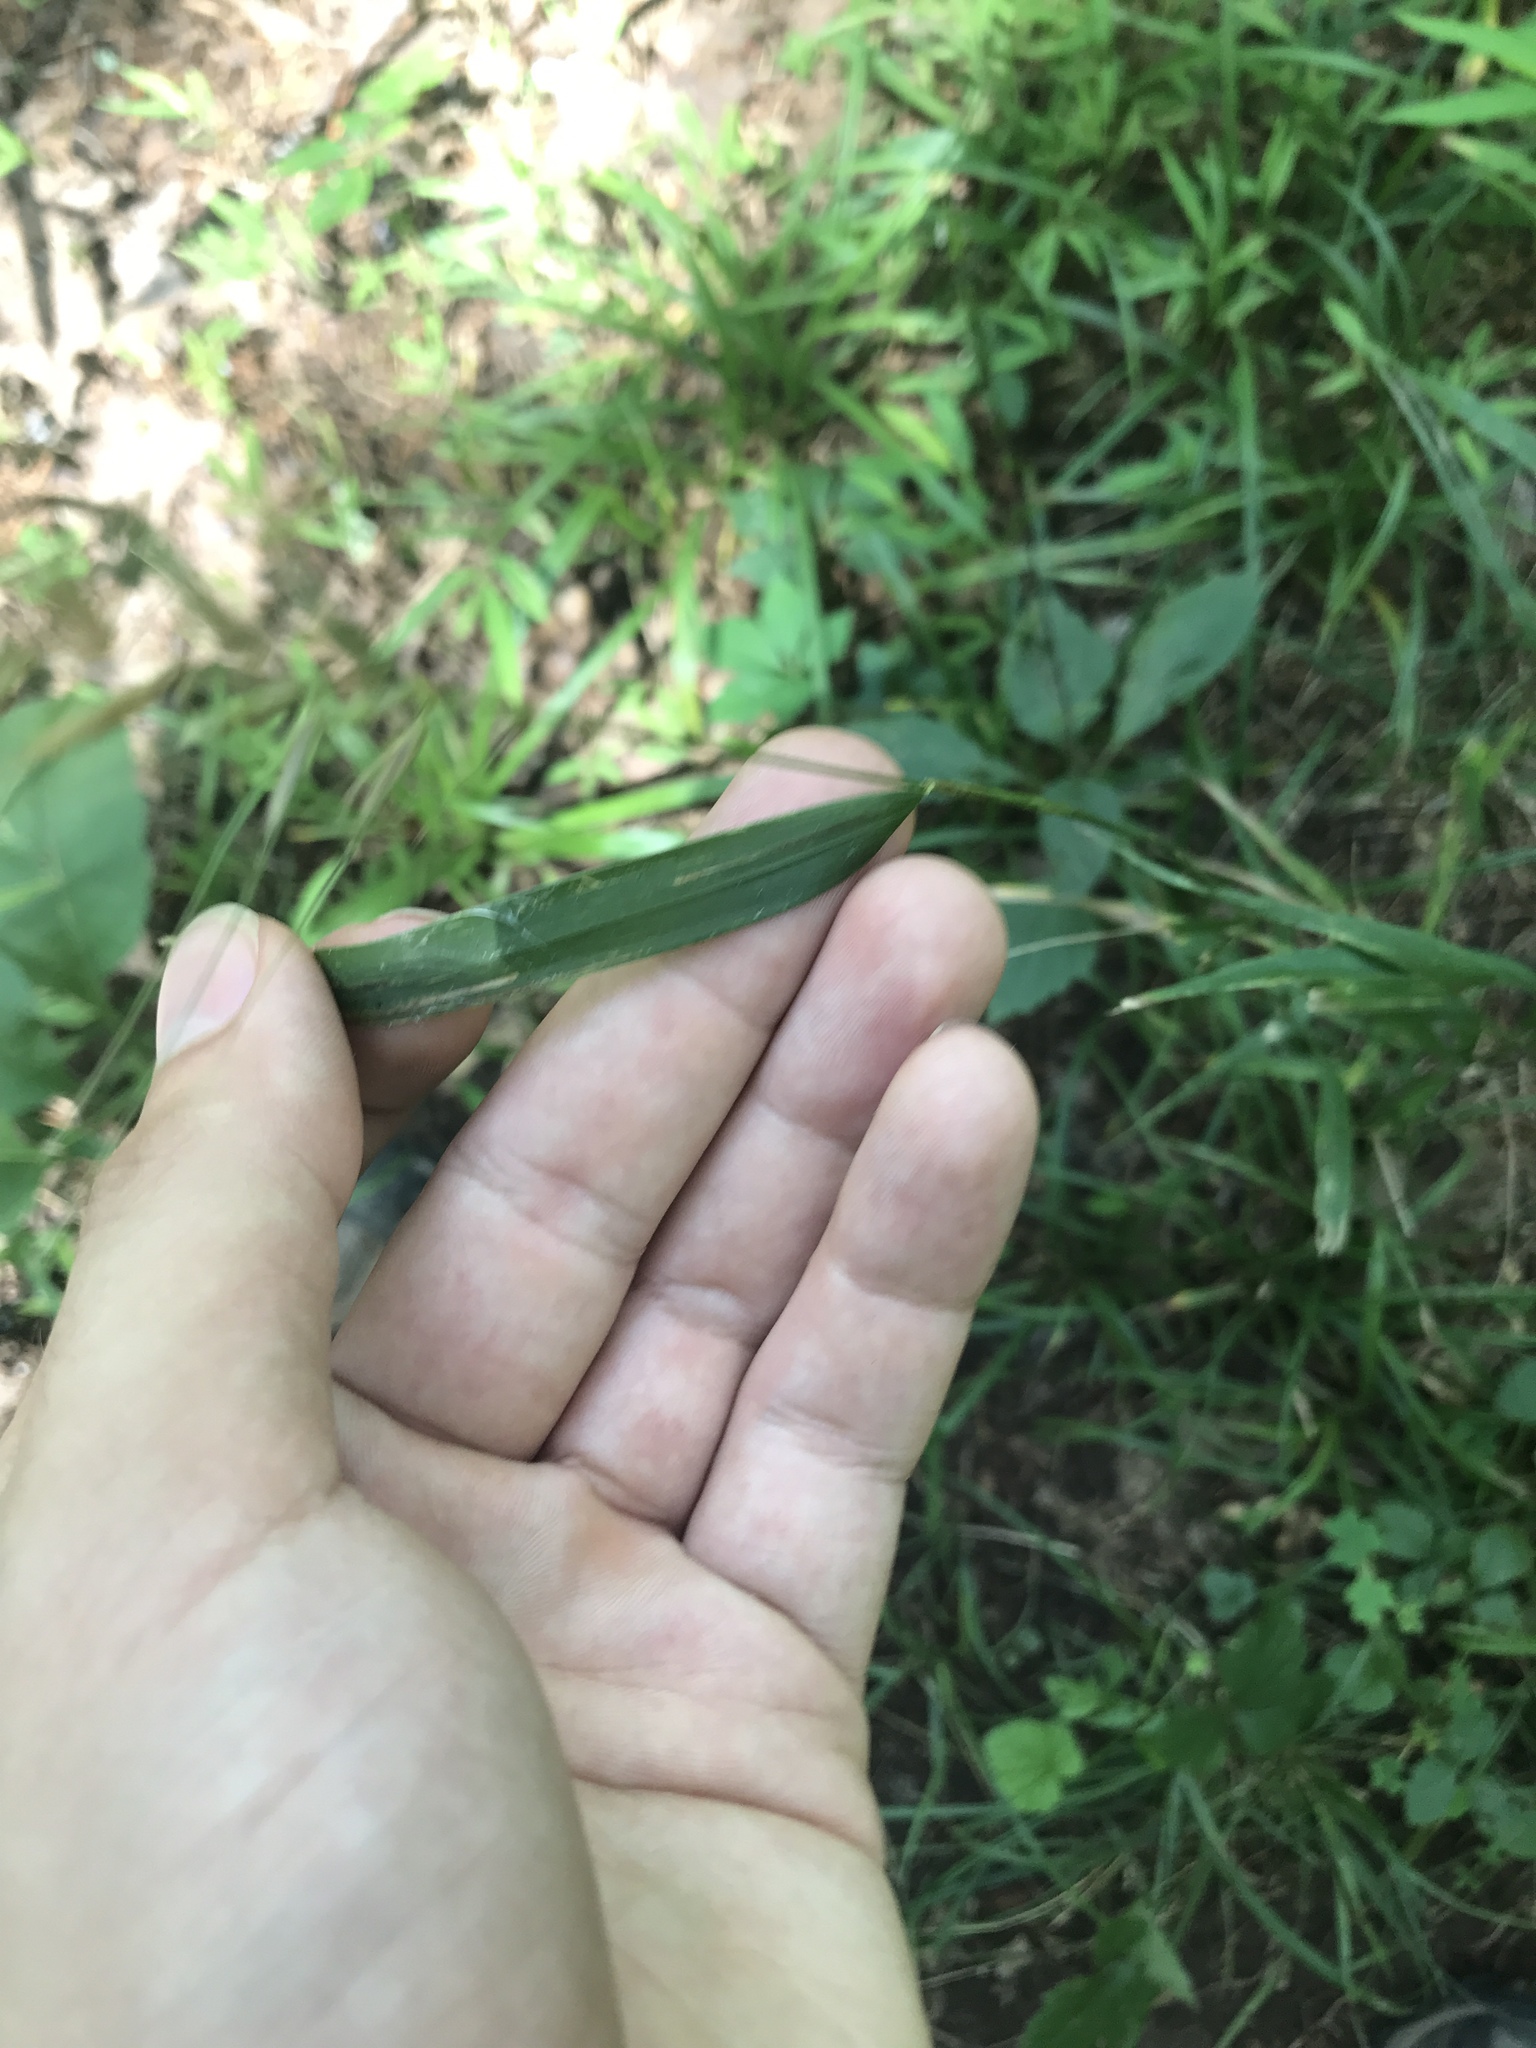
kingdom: Plantae
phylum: Tracheophyta
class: Liliopsida
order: Poales
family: Poaceae
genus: Elymus
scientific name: Elymus hystrix
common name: Bottlebrush grass
